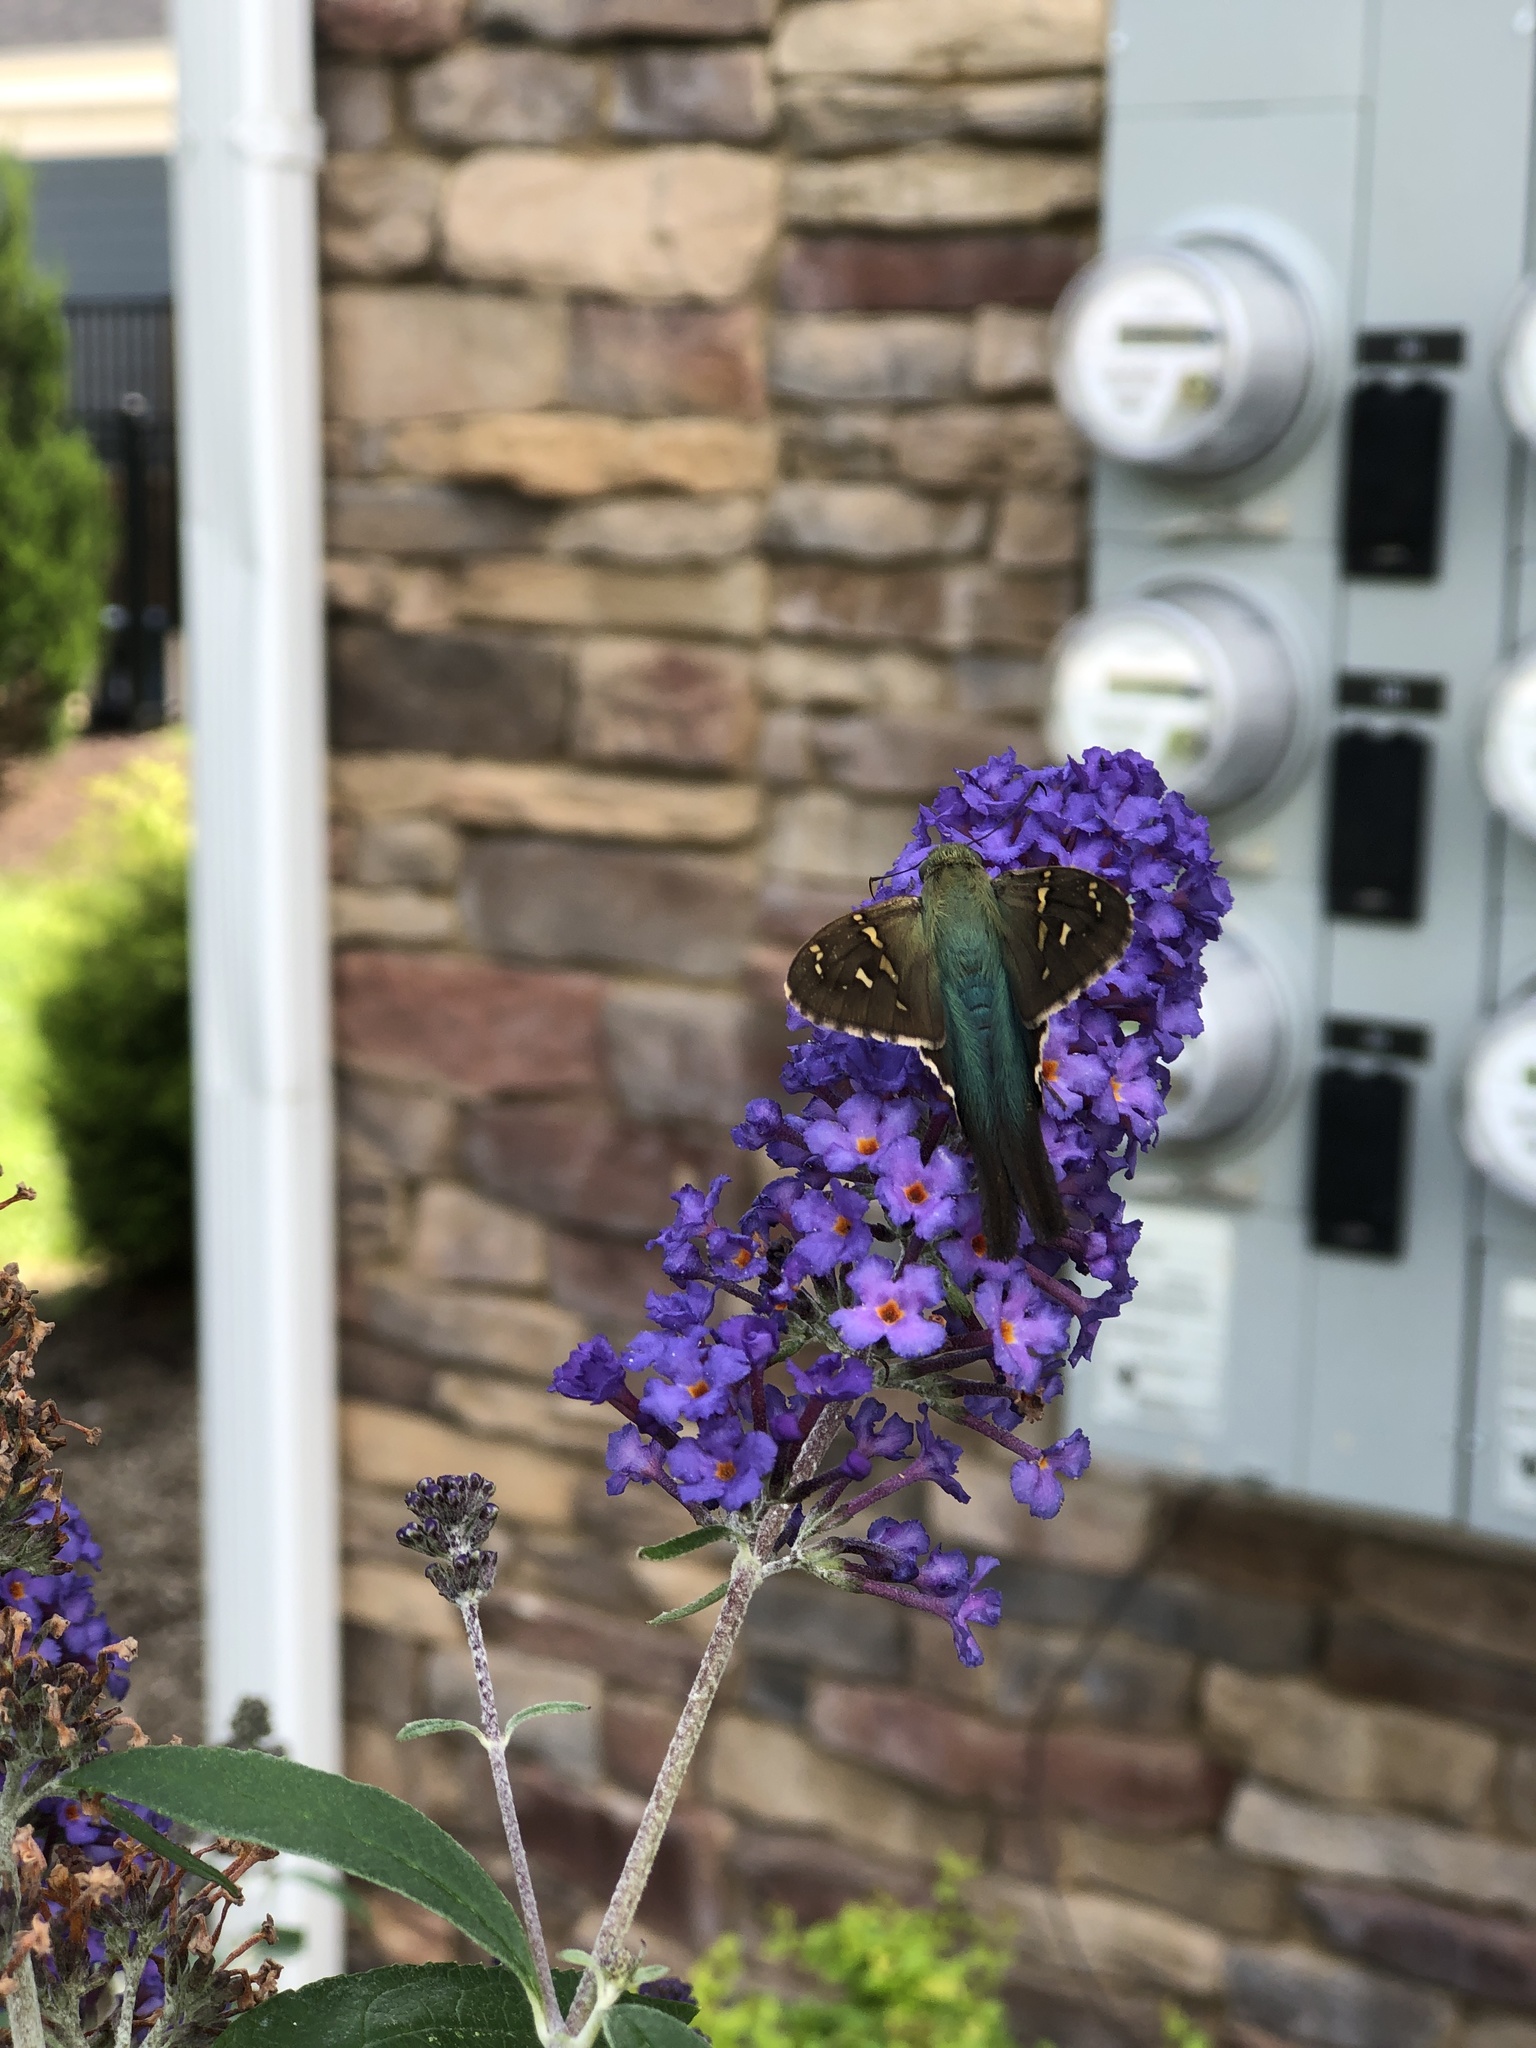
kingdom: Animalia
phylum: Arthropoda
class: Insecta
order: Lepidoptera
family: Hesperiidae
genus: Urbanus
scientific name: Urbanus proteus
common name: Long-tailed skipper
